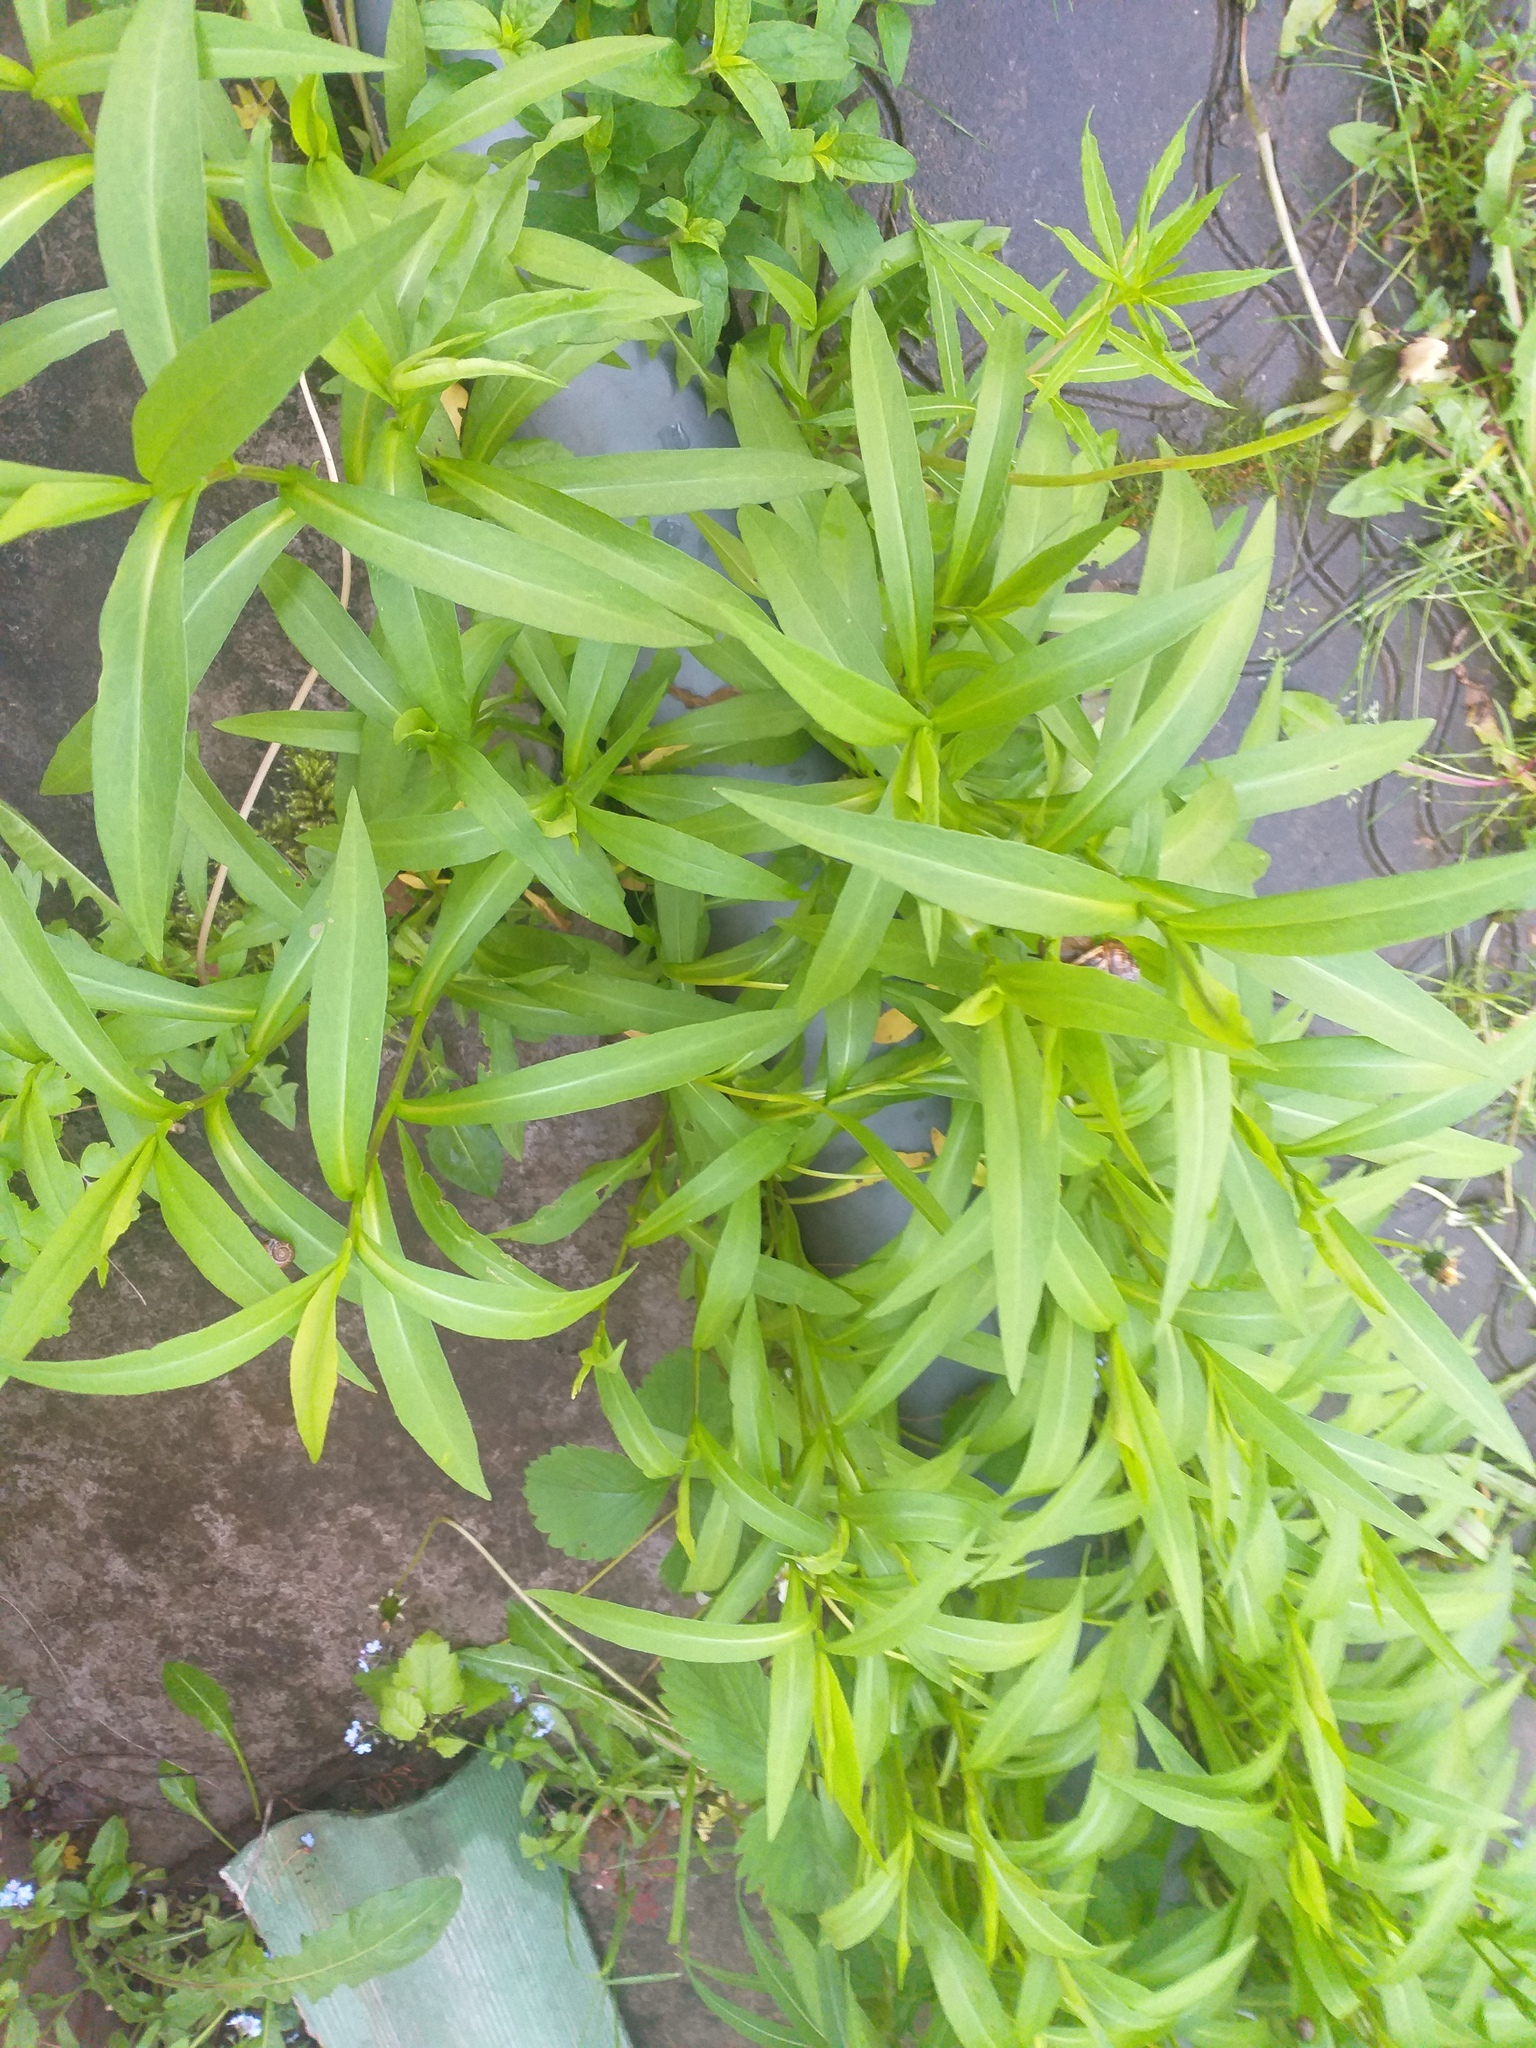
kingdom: Plantae
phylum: Tracheophyta
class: Magnoliopsida
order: Asterales
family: Asteraceae
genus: Symphyotrichum
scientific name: Symphyotrichum salignum
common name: Common michaelmas daisy
